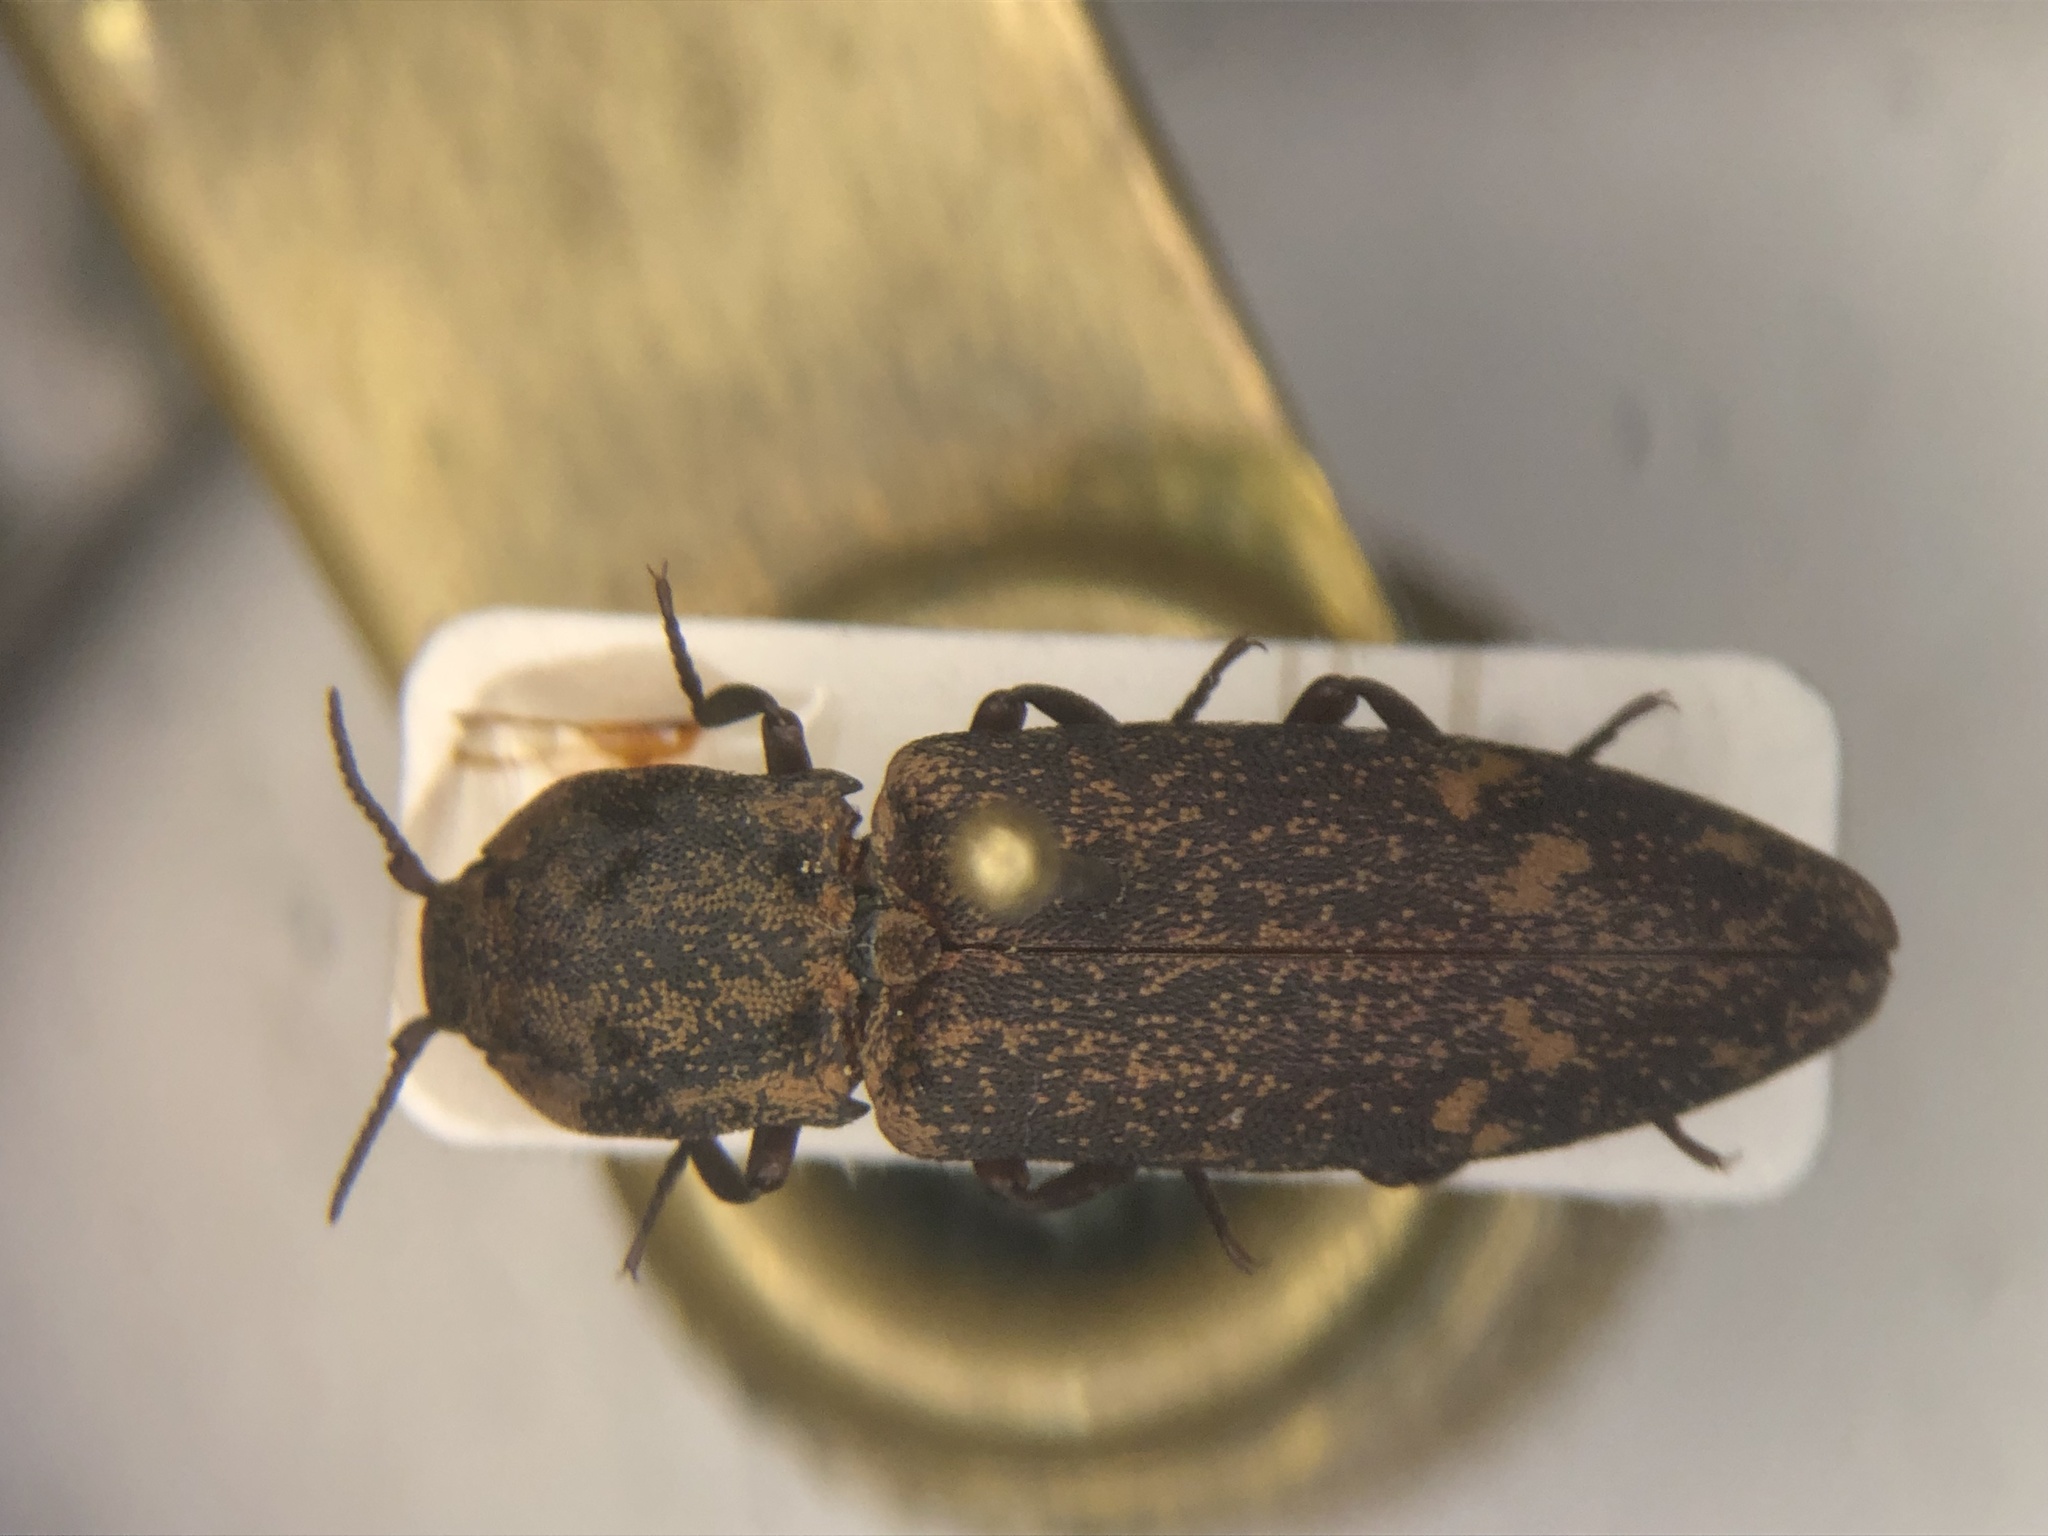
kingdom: Animalia
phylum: Arthropoda
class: Insecta
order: Coleoptera
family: Elateridae
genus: Danosoma
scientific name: Danosoma brevicorne
